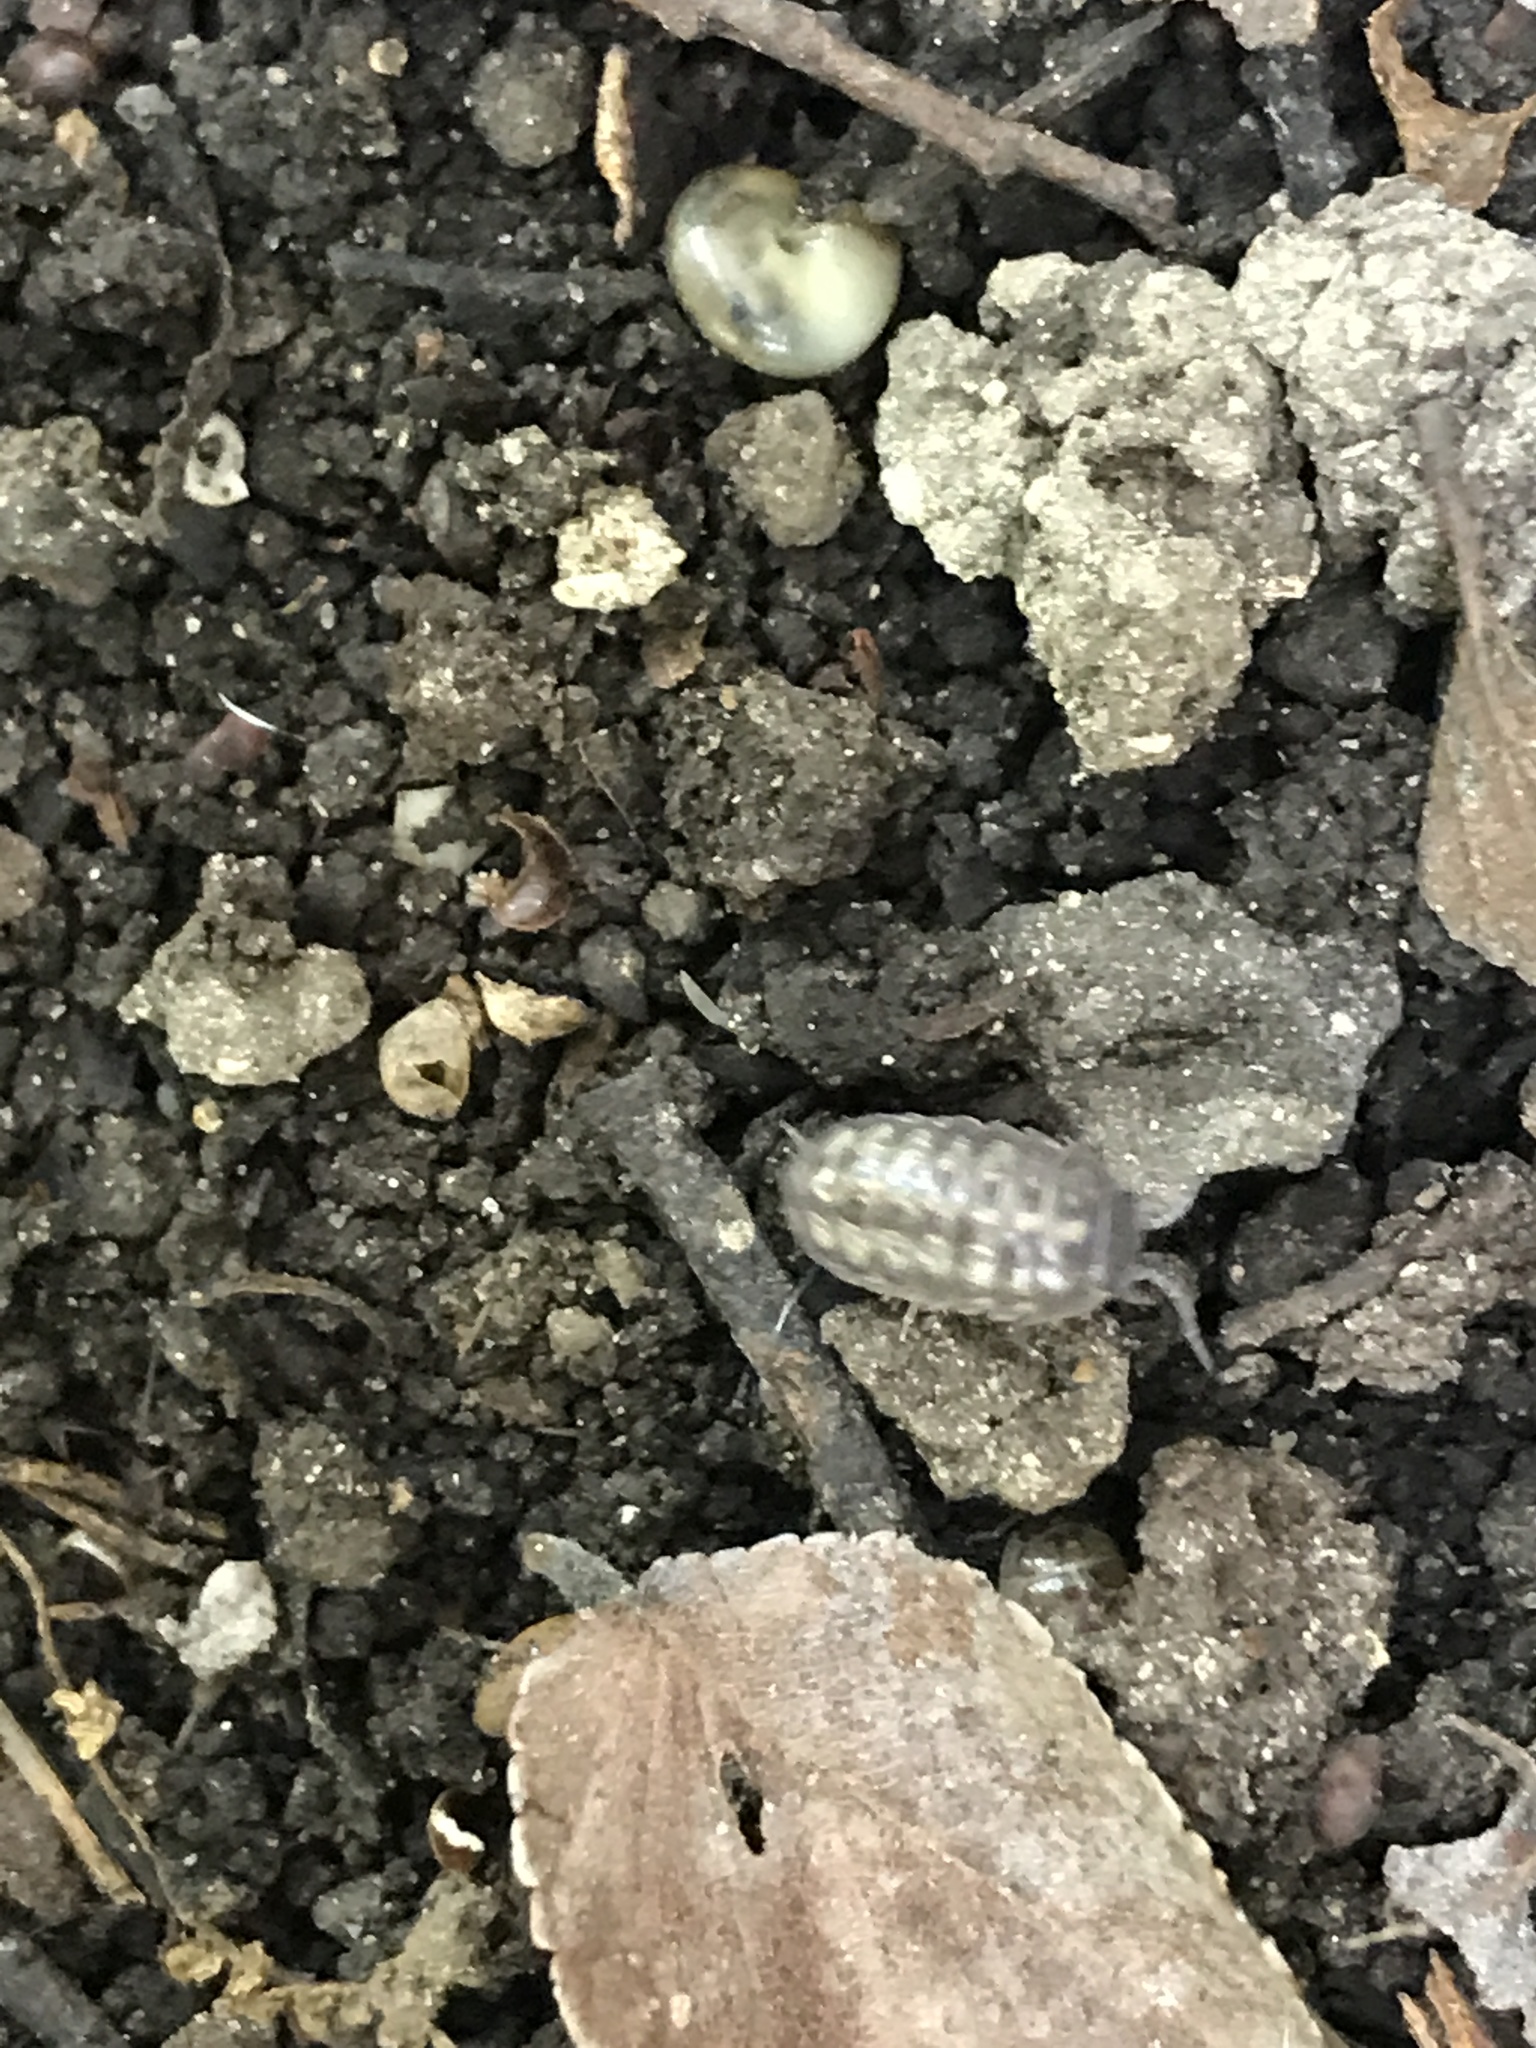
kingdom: Animalia
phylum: Arthropoda
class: Malacostraca
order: Isopoda
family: Armadillidiidae
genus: Armadillidium
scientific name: Armadillidium vulgare
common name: Common pill woodlouse
